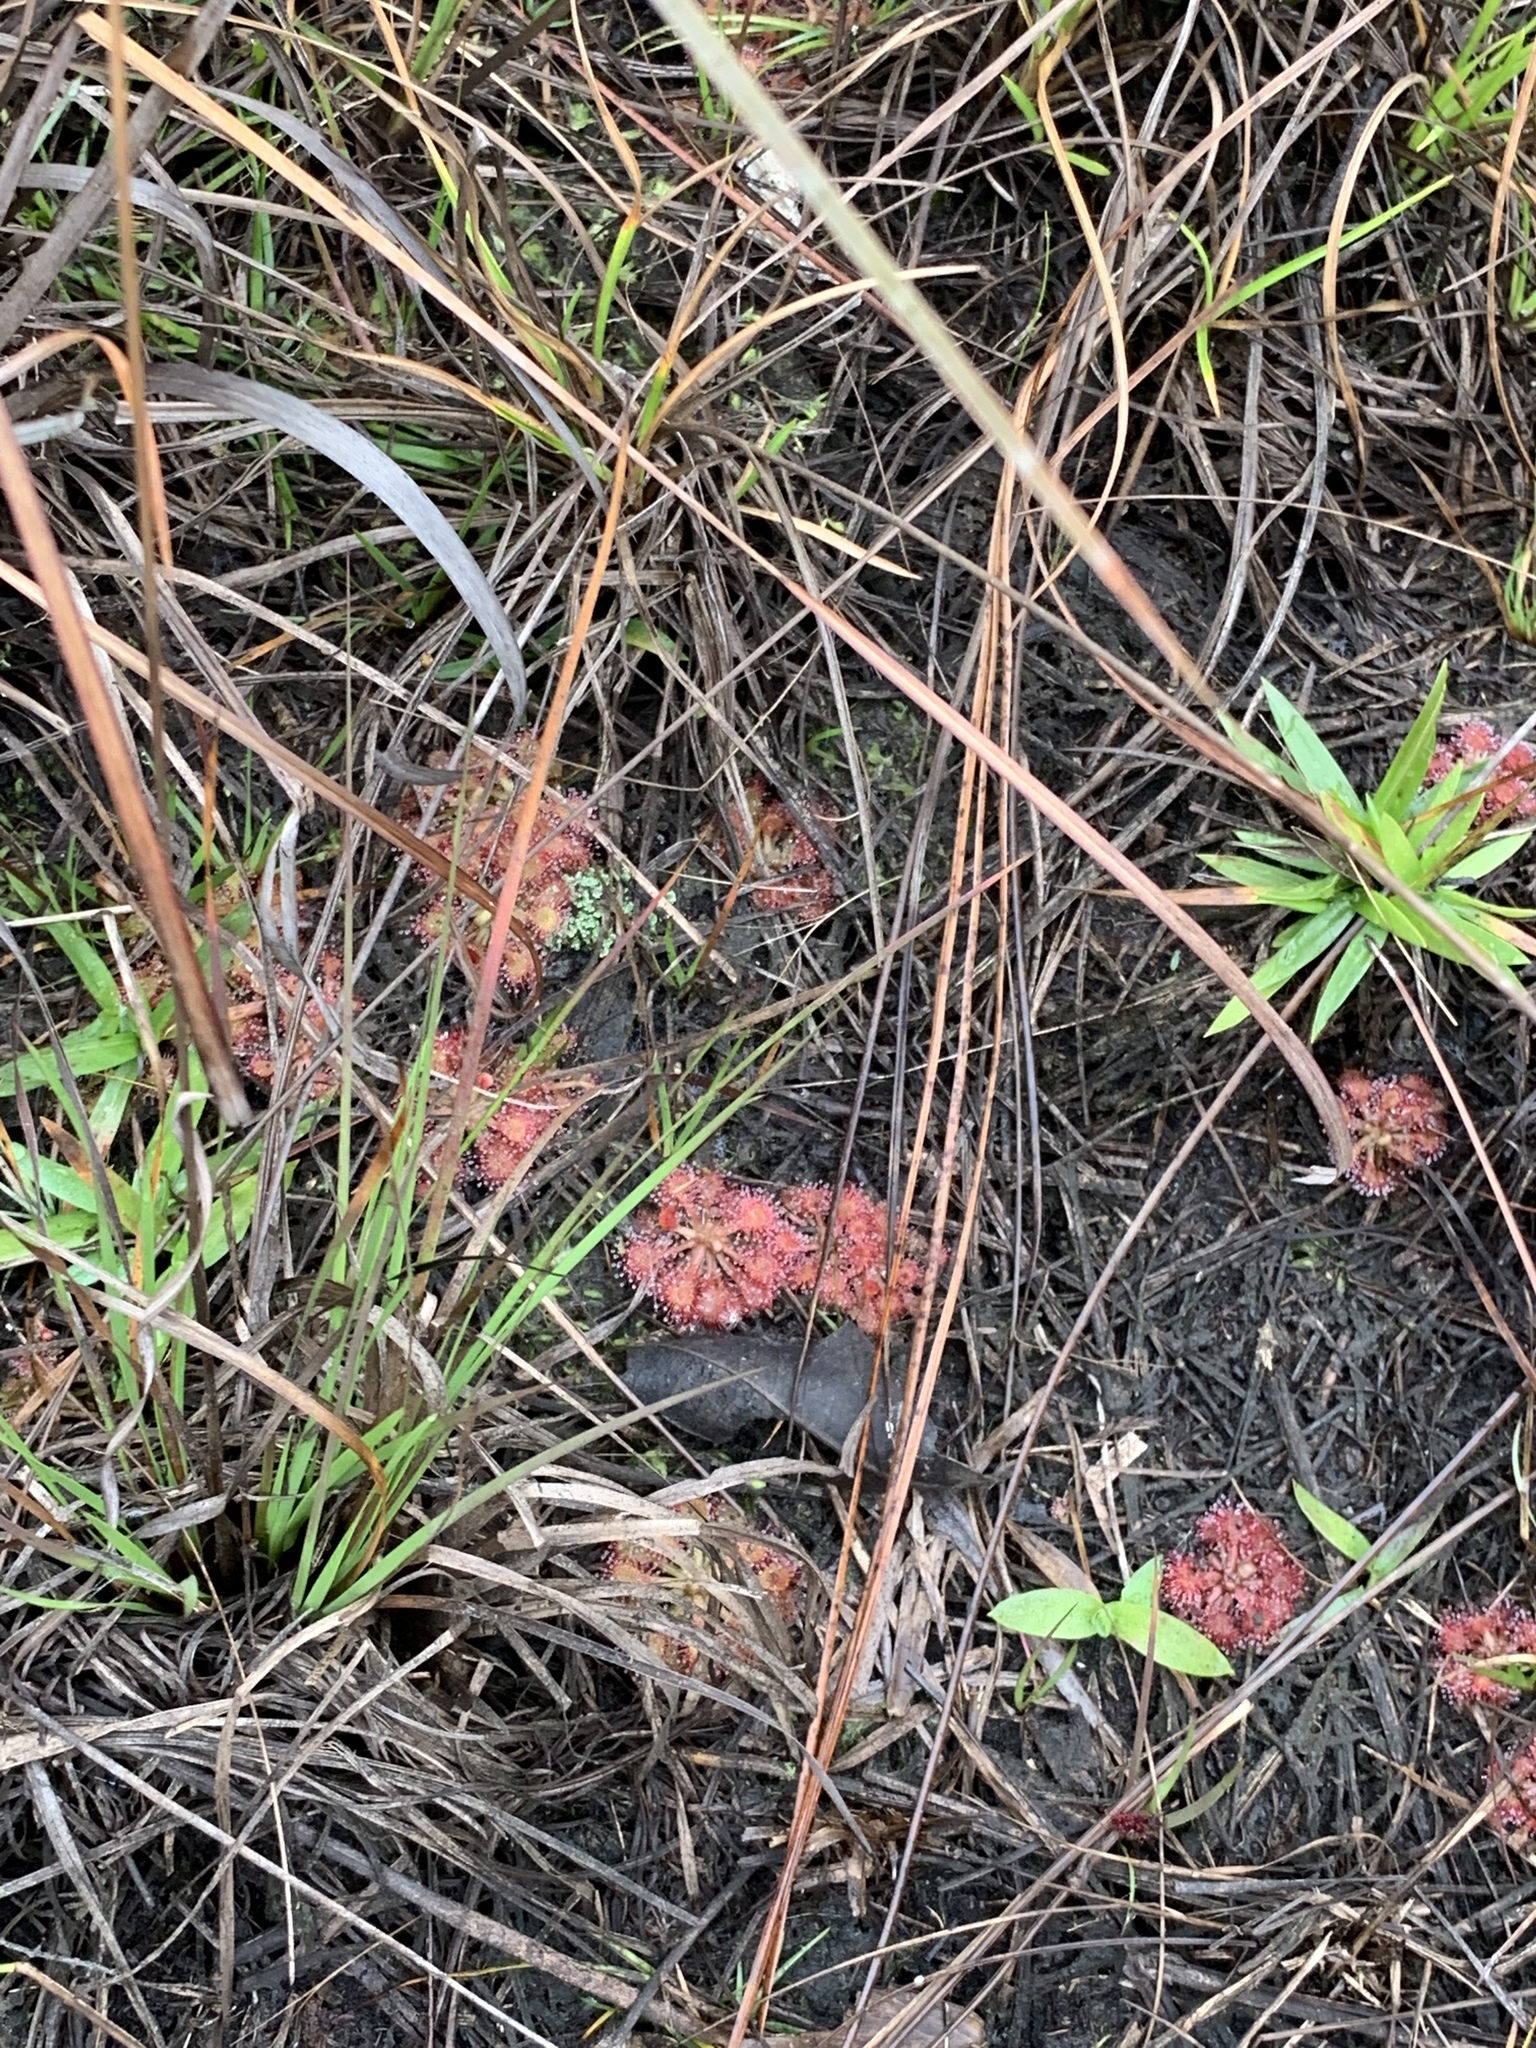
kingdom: Plantae
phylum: Tracheophyta
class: Magnoliopsida
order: Caryophyllales
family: Droseraceae
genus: Drosera
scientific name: Drosera capillaris
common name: Pink sundew
